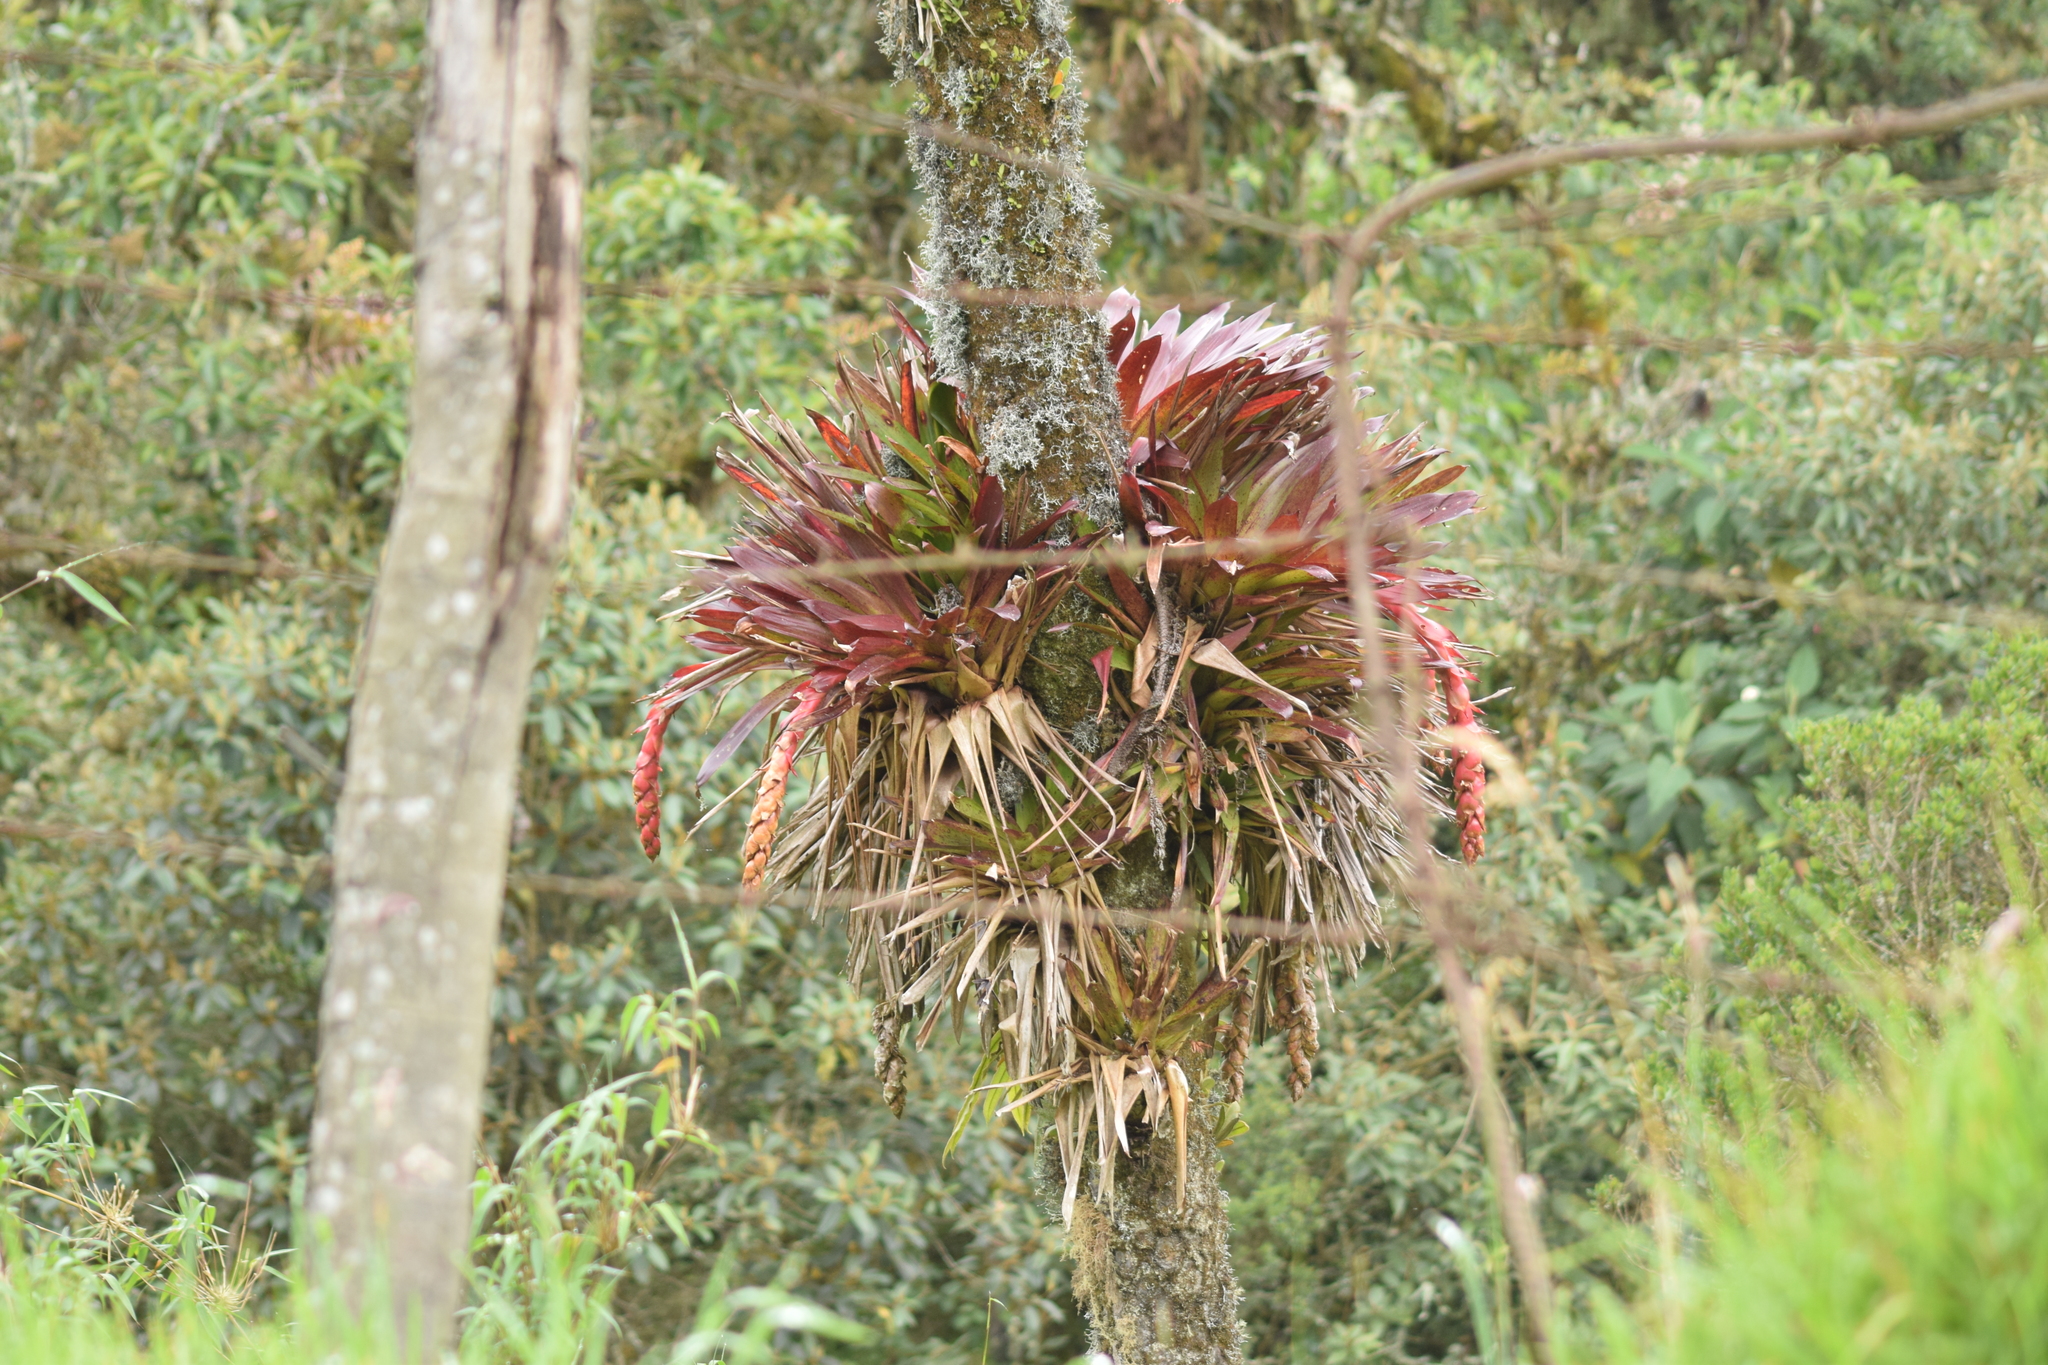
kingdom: Plantae
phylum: Tracheophyta
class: Liliopsida
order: Poales
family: Bromeliaceae
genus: Tillandsia
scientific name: Tillandsia stipitata
